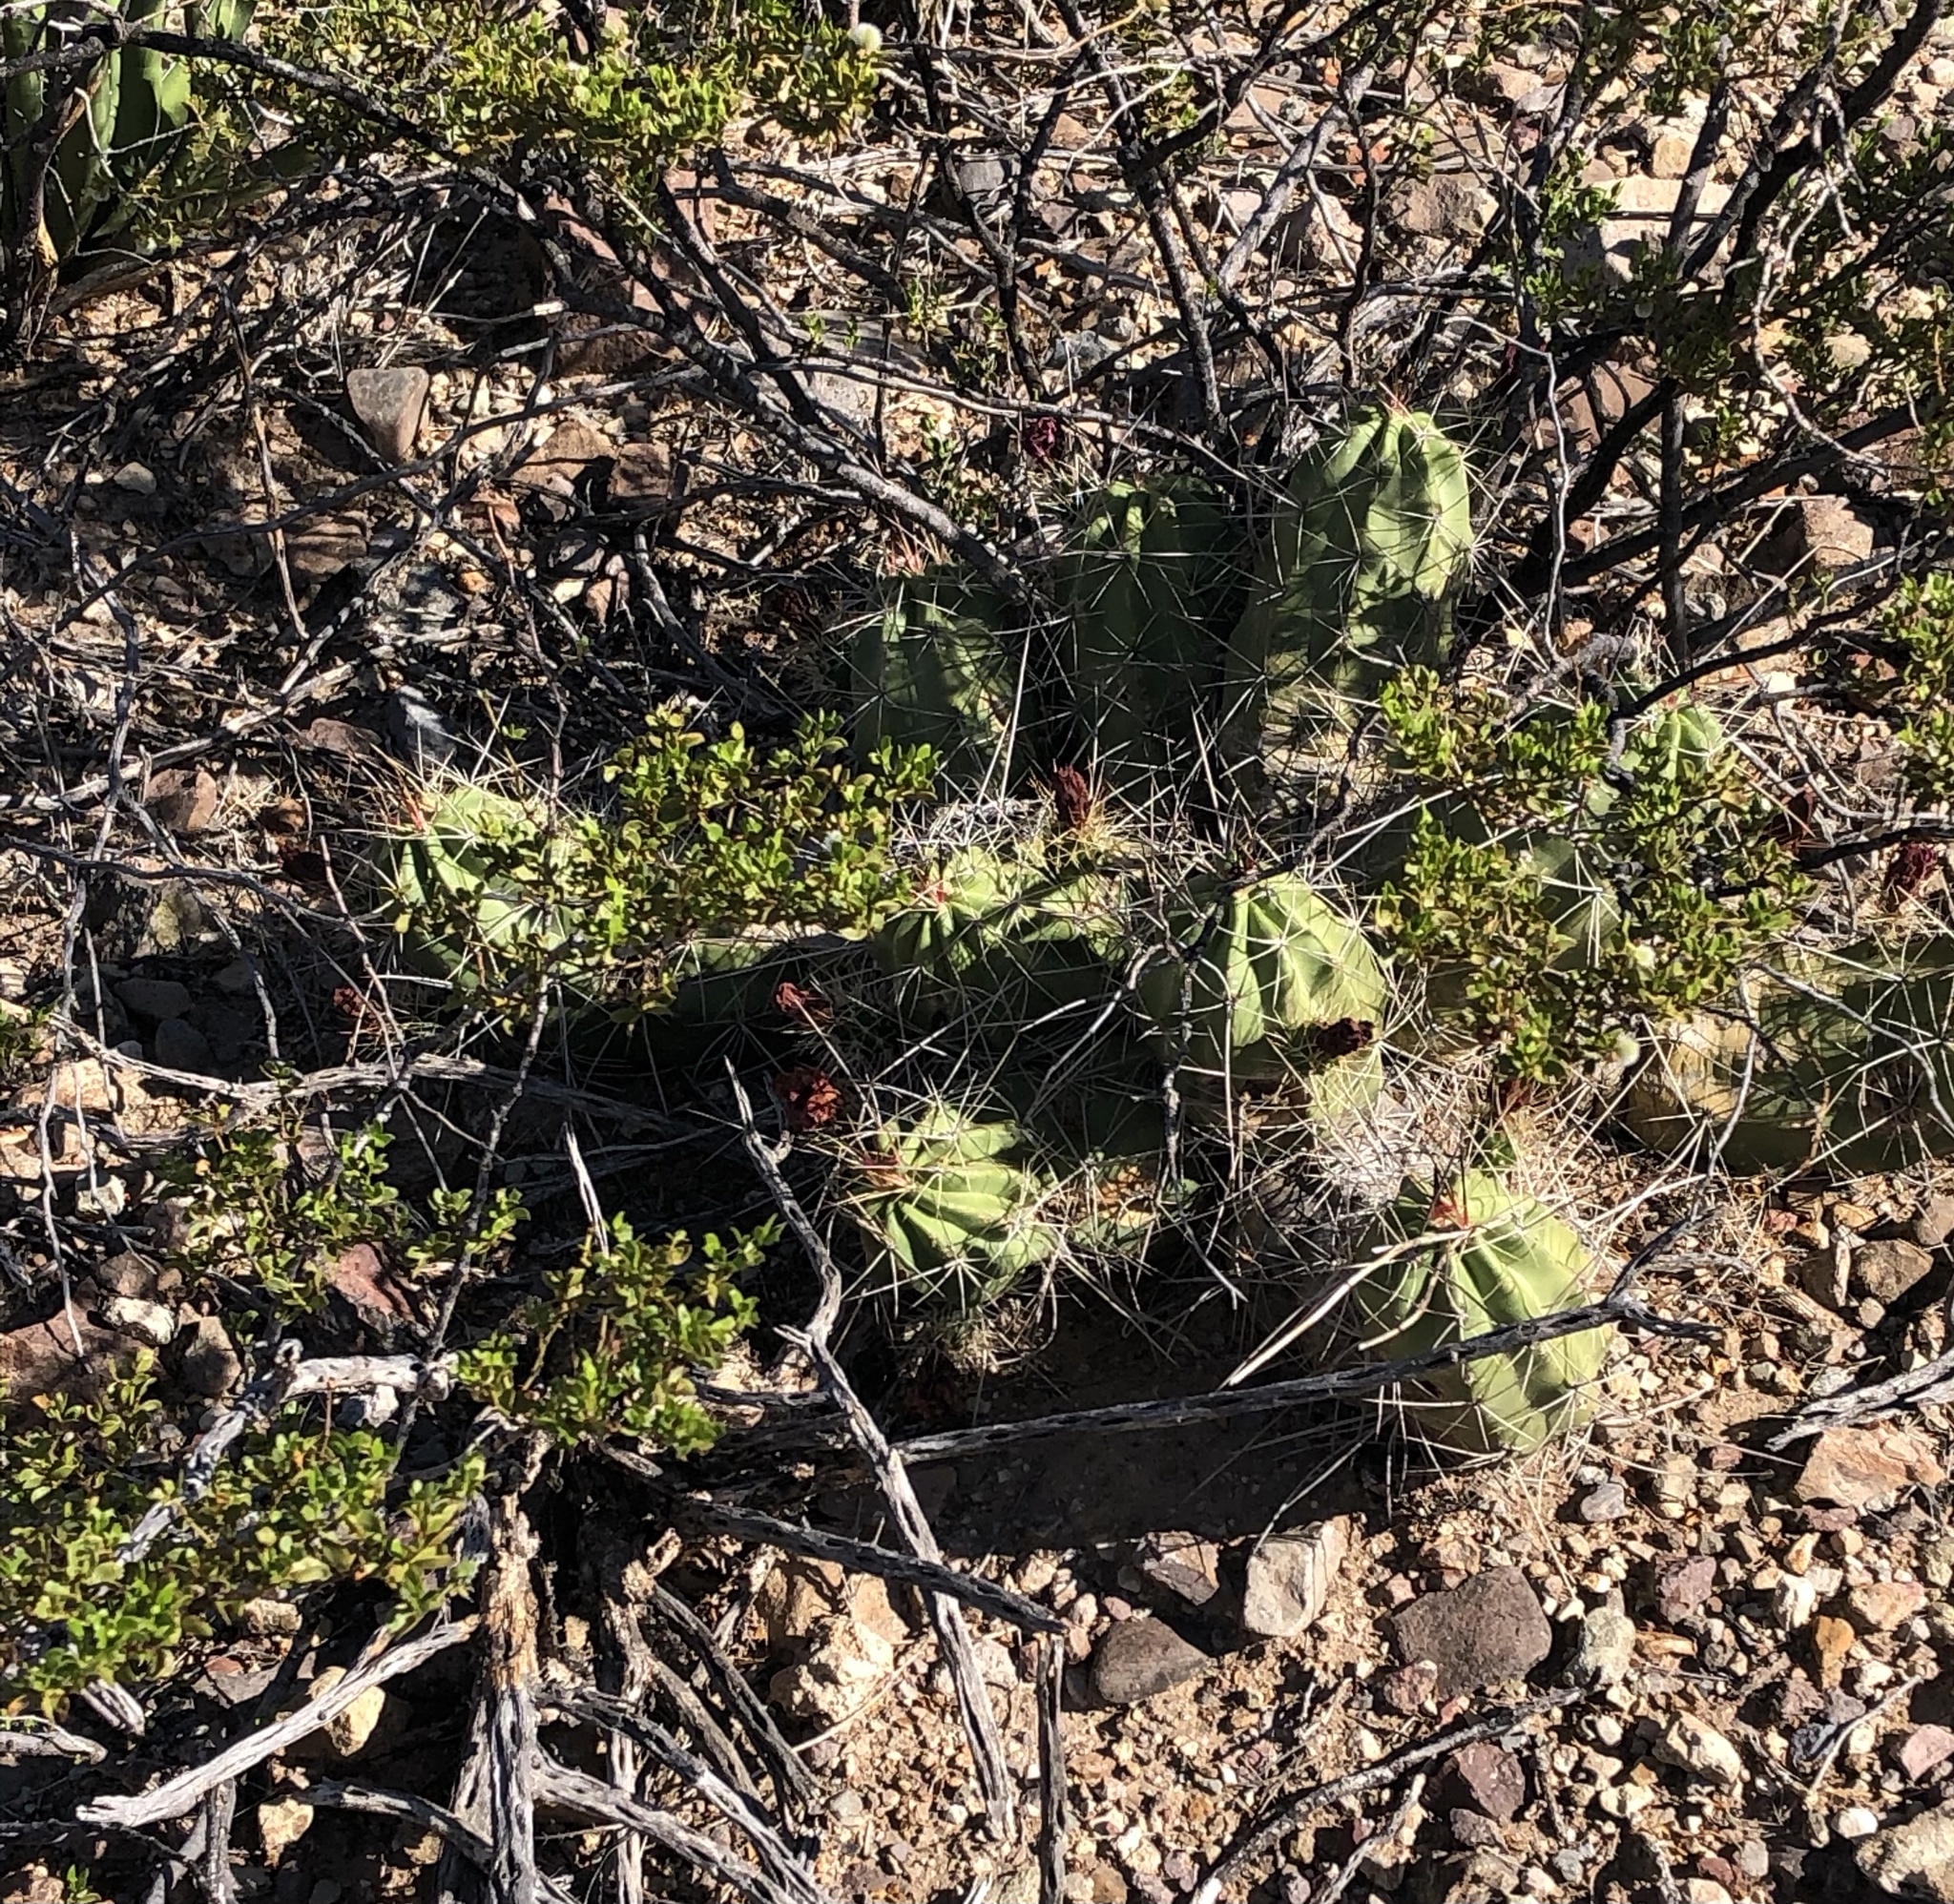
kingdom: Plantae
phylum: Tracheophyta
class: Magnoliopsida
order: Caryophyllales
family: Cactaceae
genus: Echinocereus
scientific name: Echinocereus enneacanthus
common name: Pitaya
